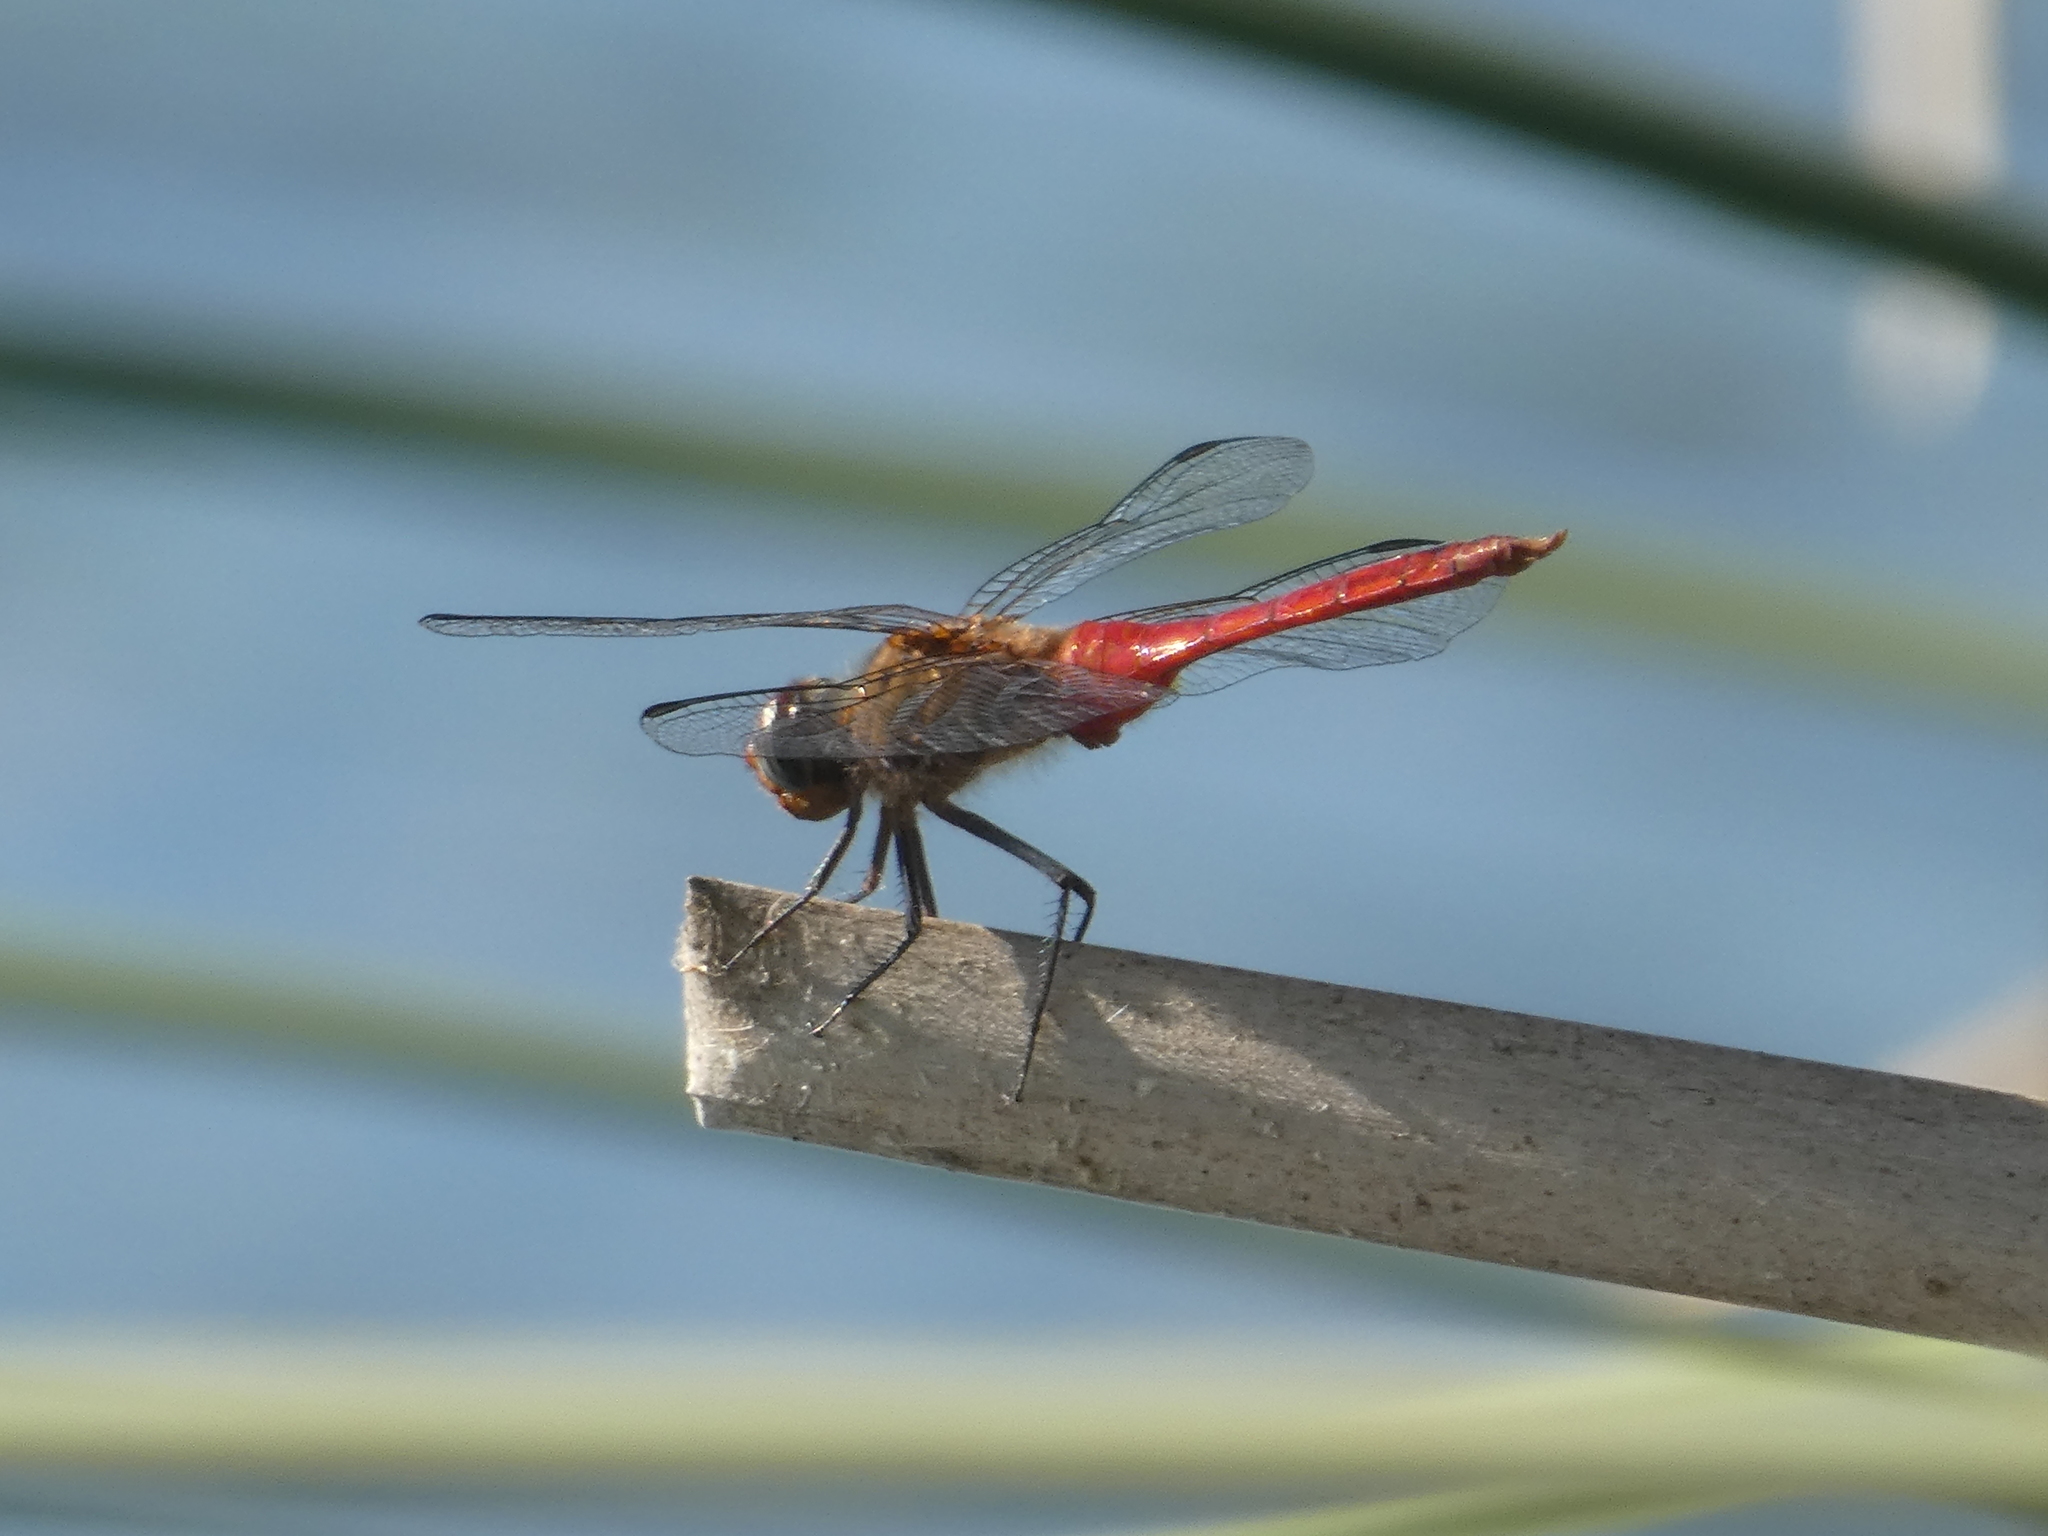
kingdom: Animalia
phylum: Arthropoda
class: Insecta
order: Odonata
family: Libellulidae
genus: Brachymesia
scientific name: Brachymesia furcata
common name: Red-taled pennant
